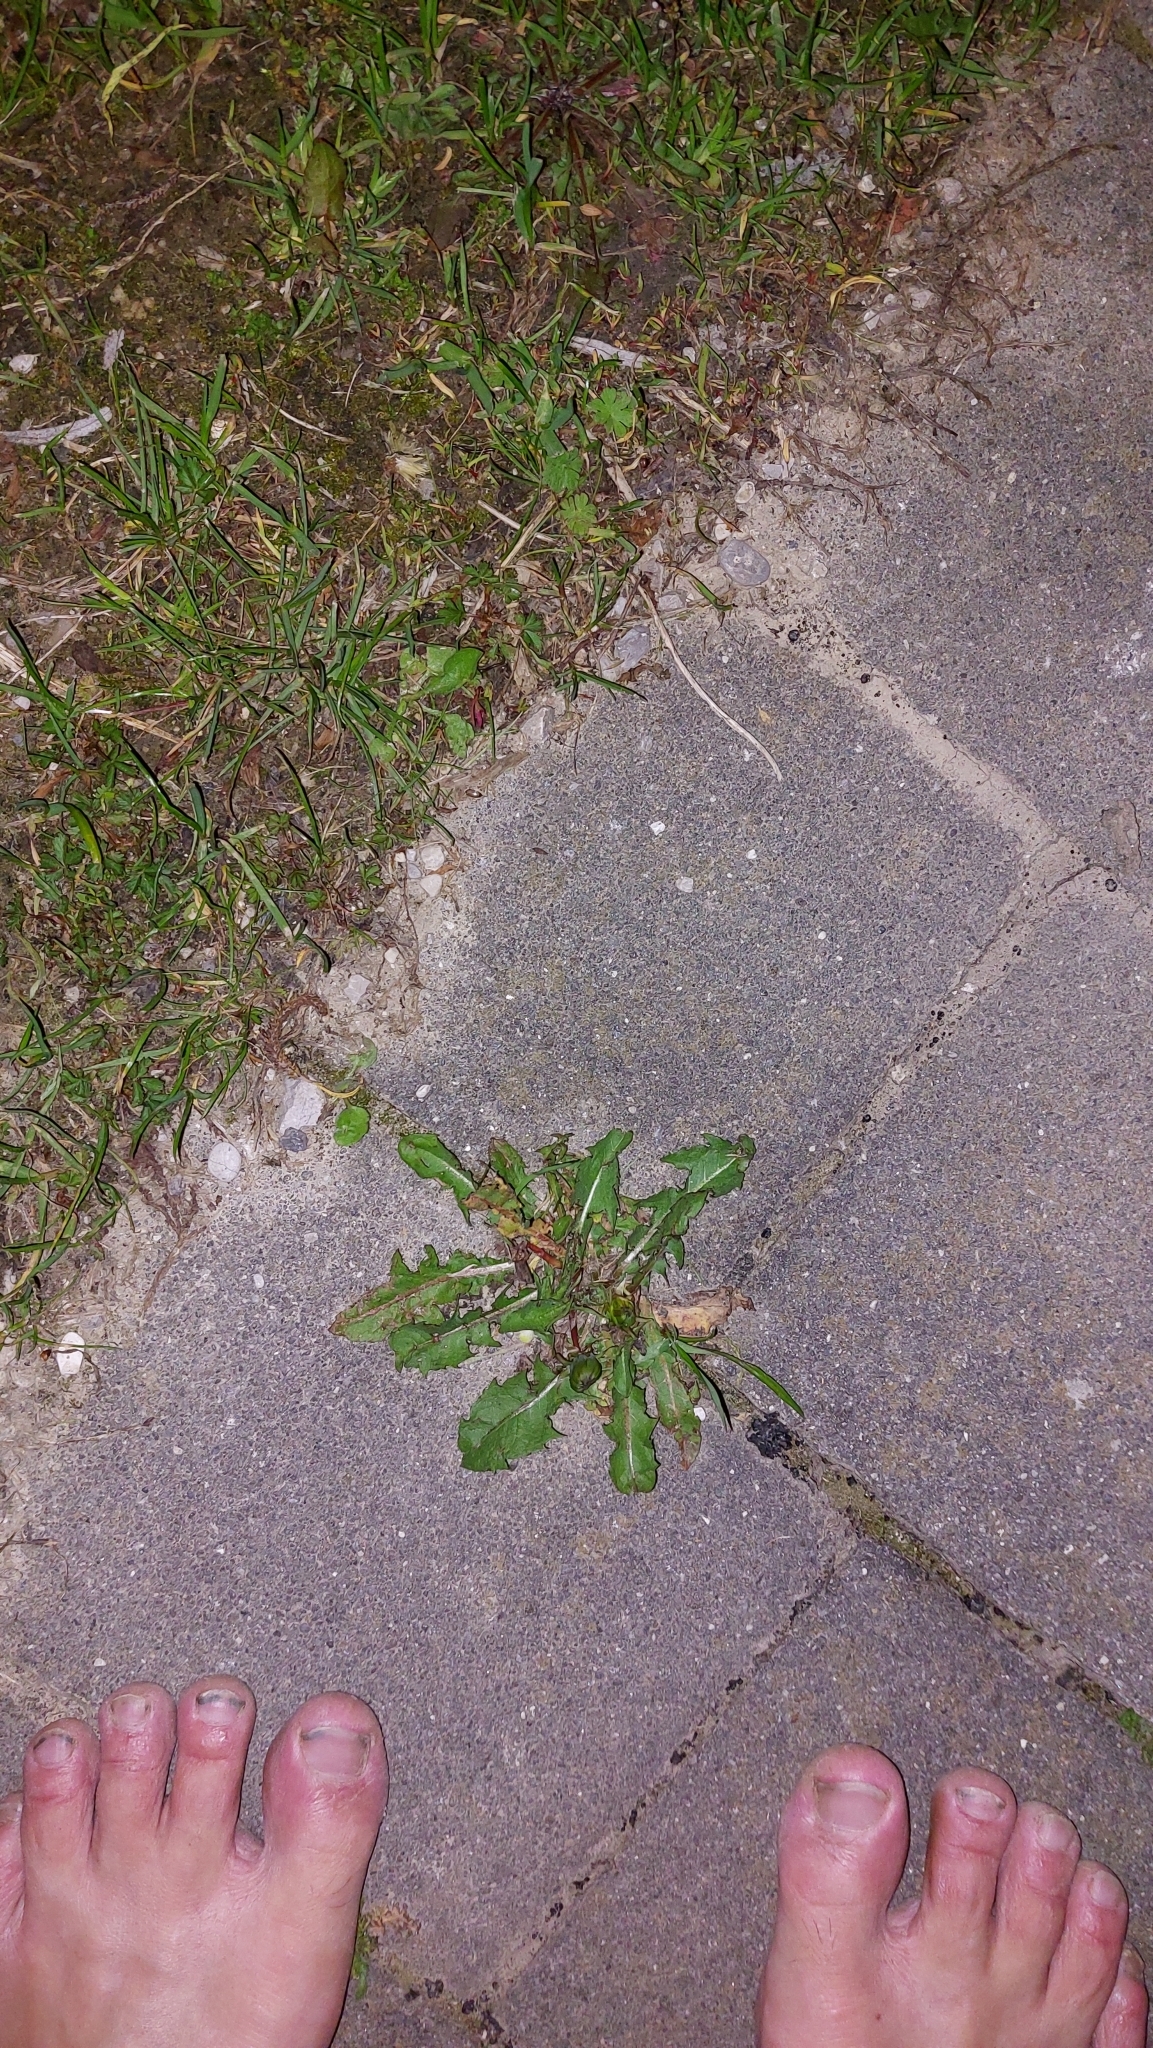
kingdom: Plantae
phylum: Tracheophyta
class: Magnoliopsida
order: Asterales
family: Asteraceae
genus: Taraxacum
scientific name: Taraxacum
